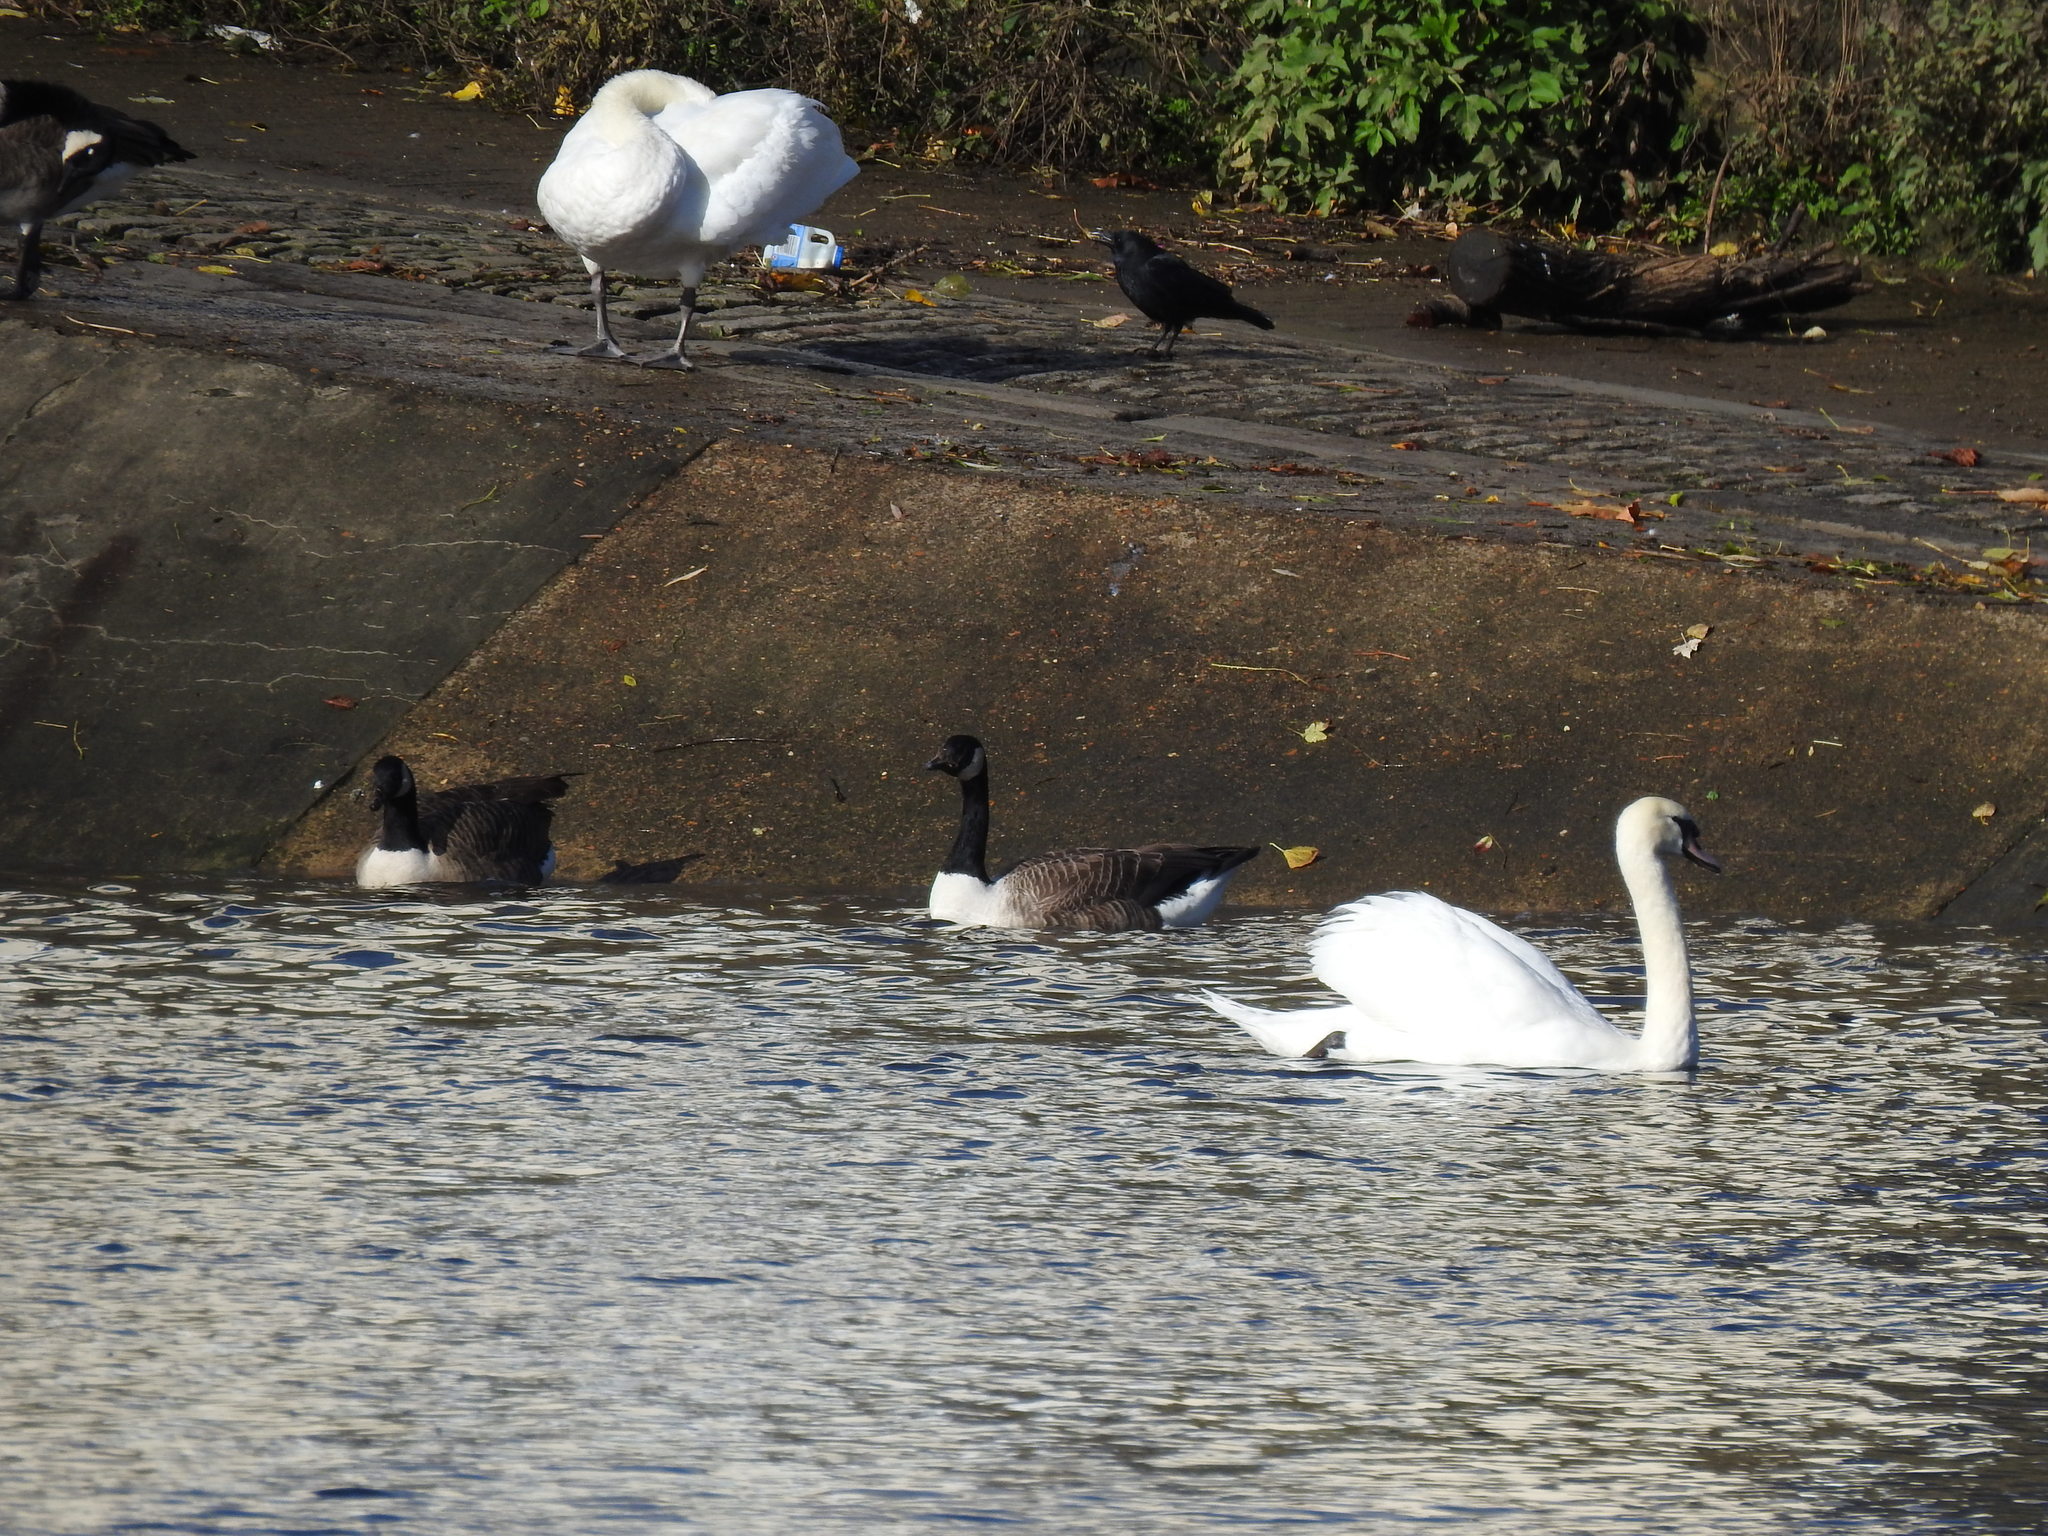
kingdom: Animalia
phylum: Chordata
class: Aves
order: Anseriformes
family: Anatidae
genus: Branta
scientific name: Branta canadensis
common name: Canada goose
